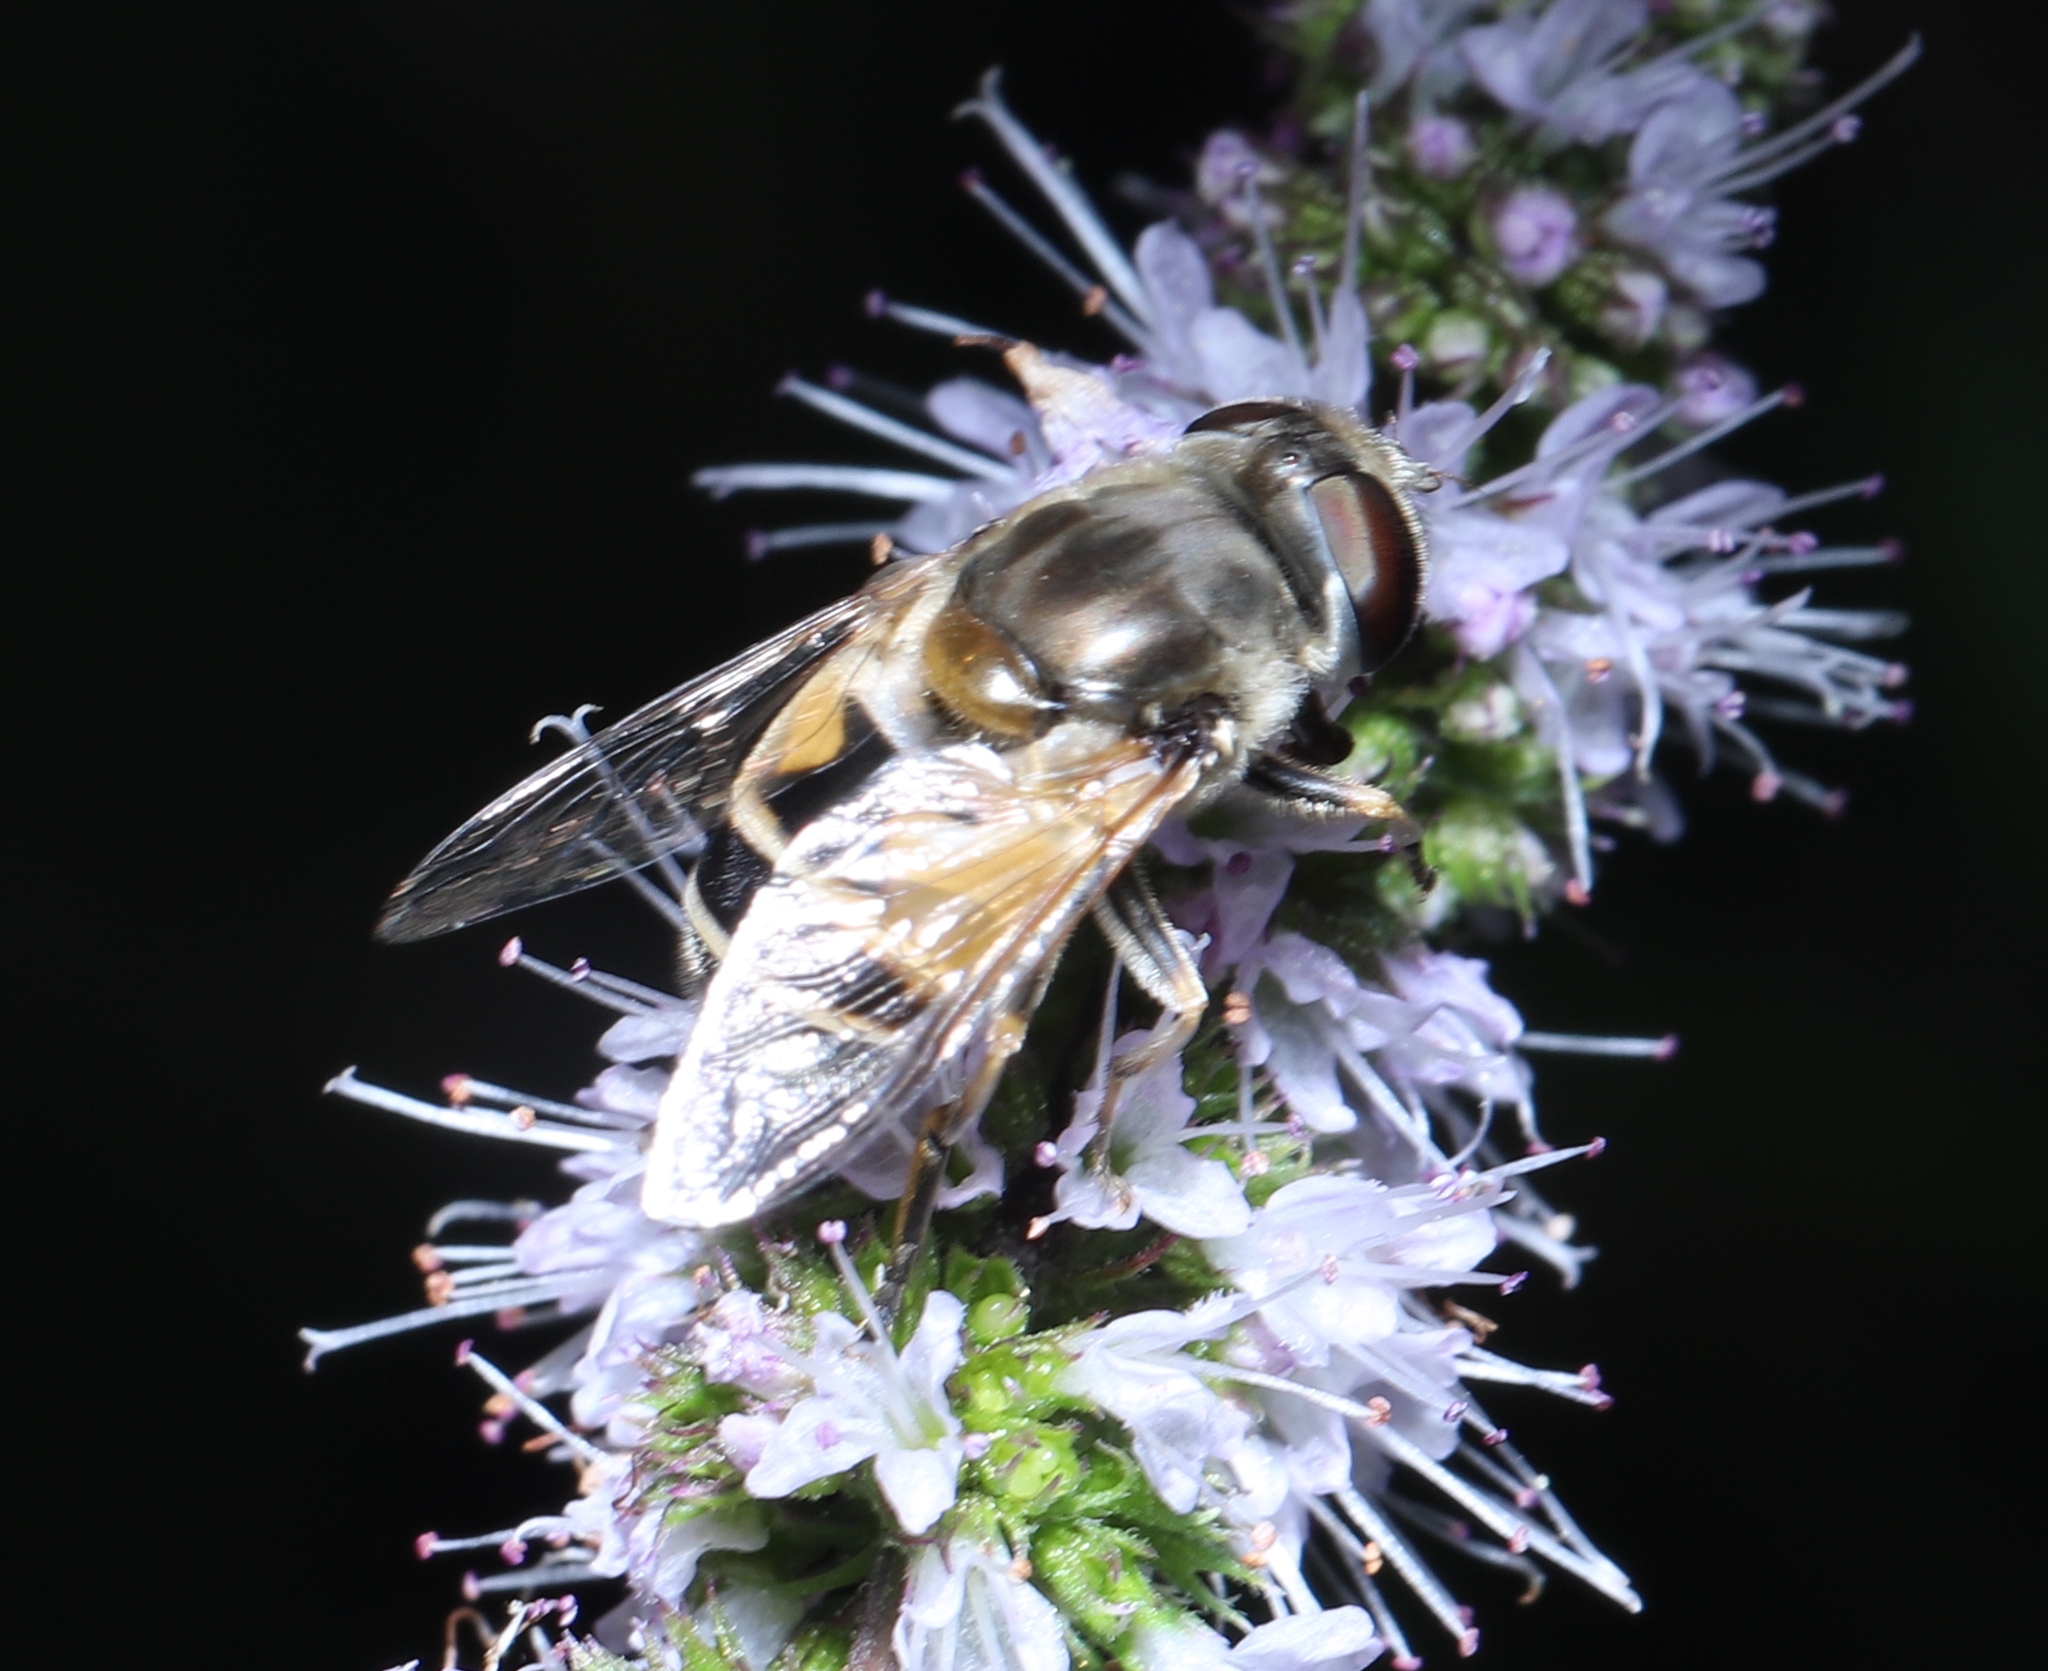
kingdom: Animalia
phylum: Arthropoda
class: Insecta
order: Diptera
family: Syrphidae
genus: Eristalis
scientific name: Eristalis arbustorum
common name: Hover fly
